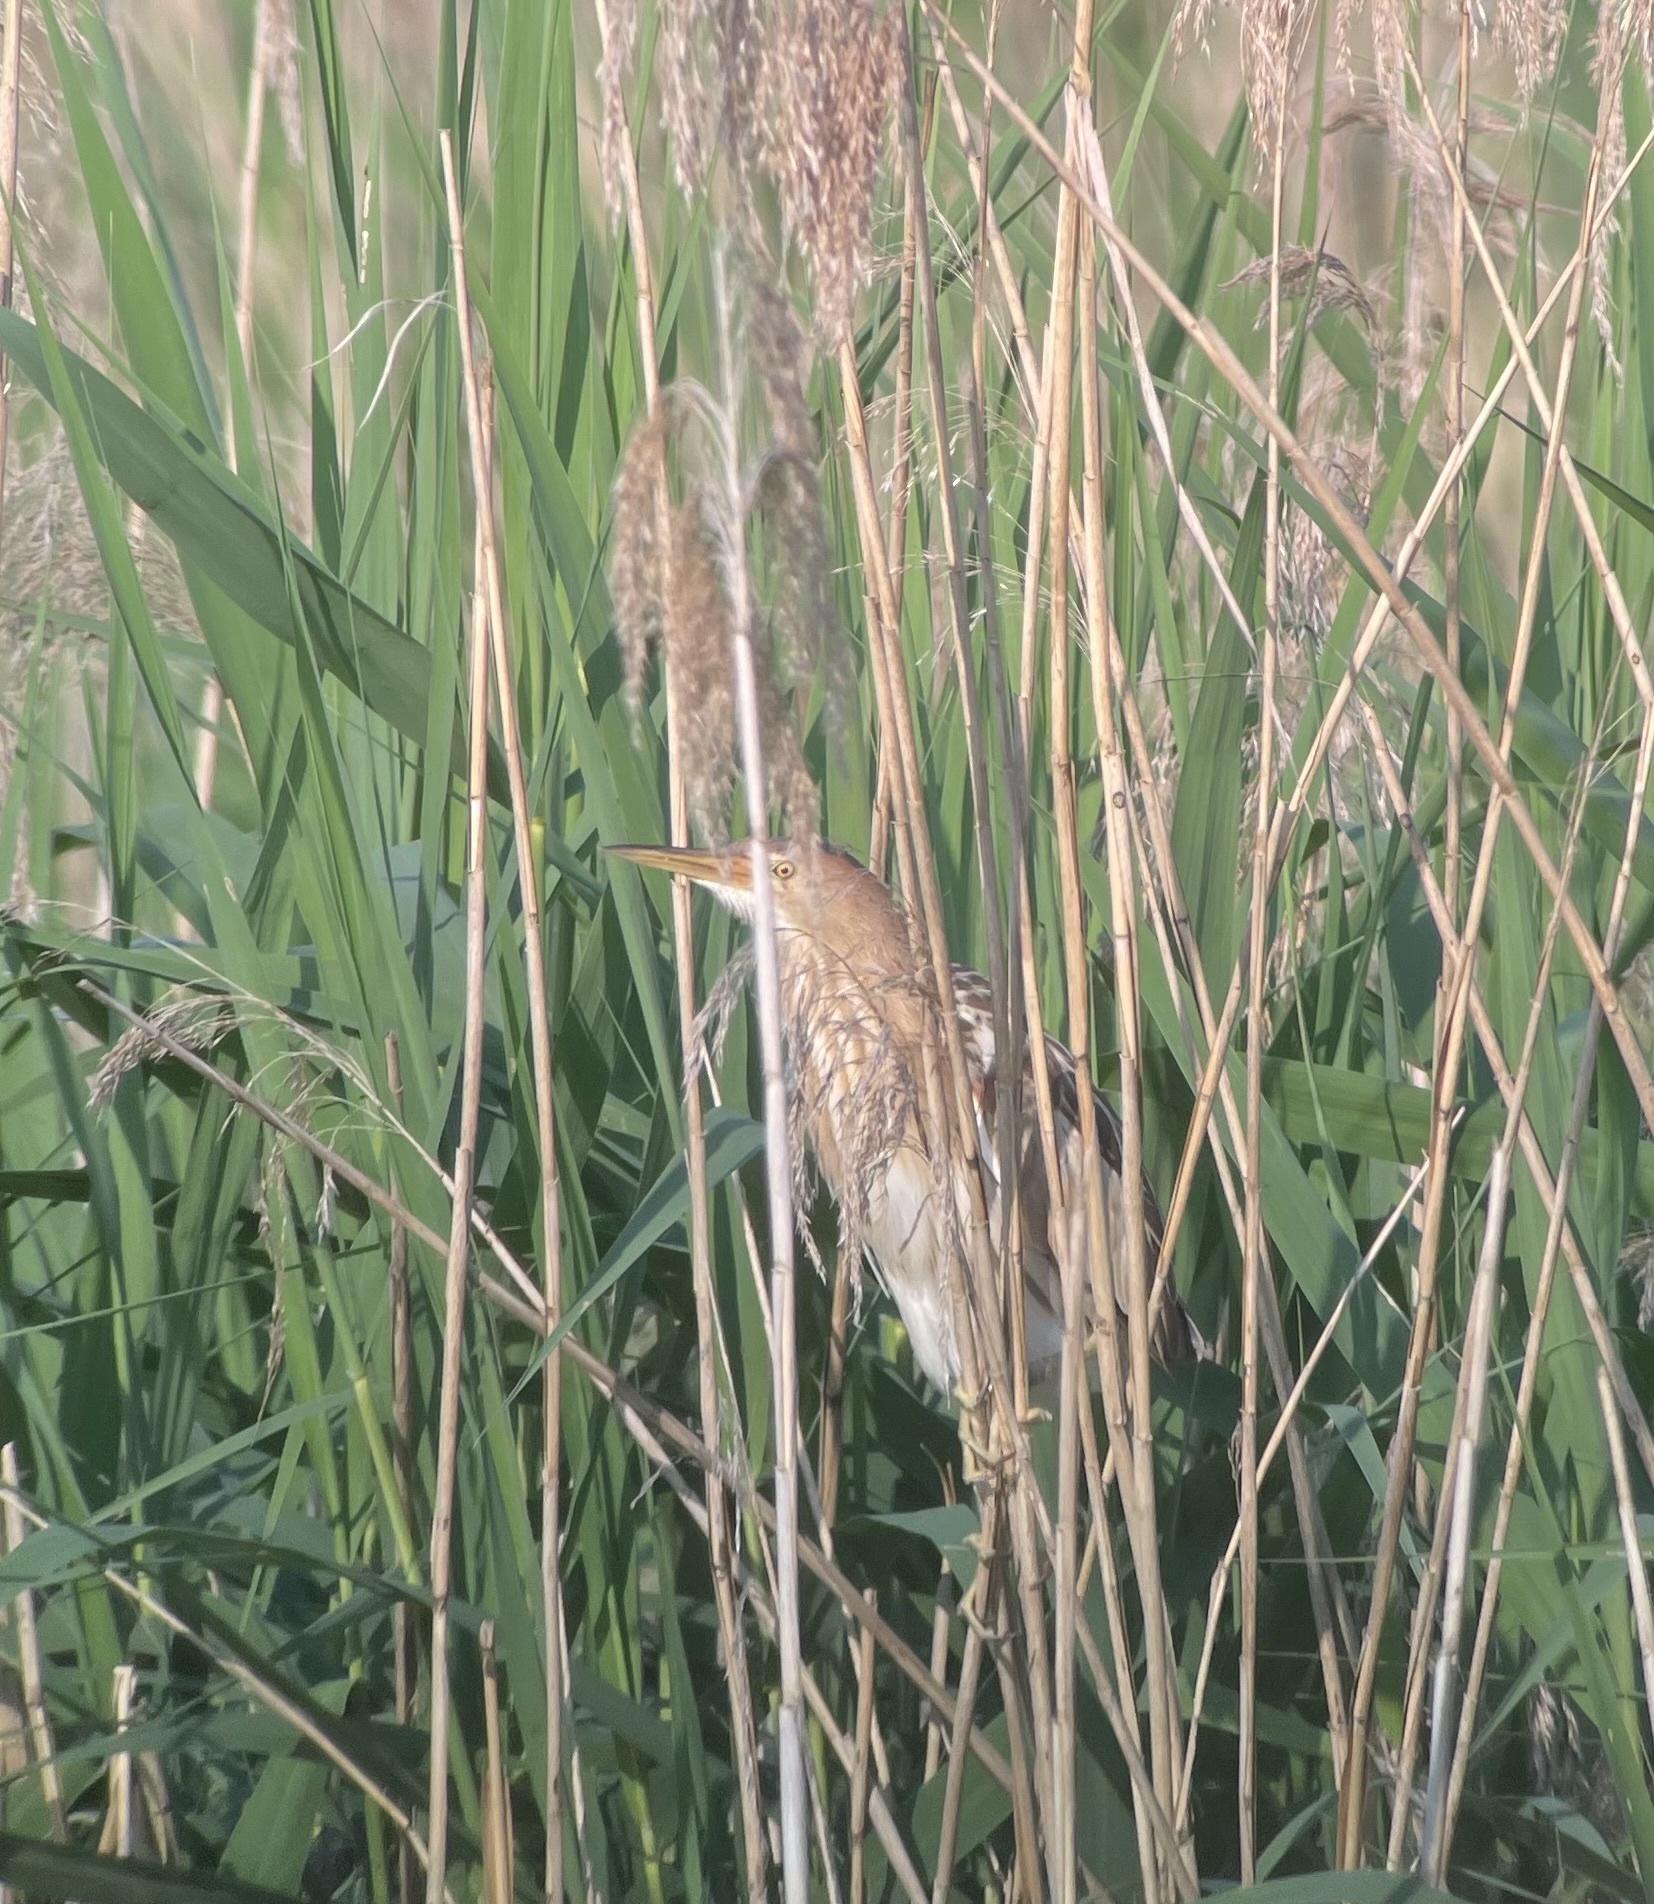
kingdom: Animalia
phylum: Chordata
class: Aves
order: Pelecaniformes
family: Ardeidae
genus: Ixobrychus
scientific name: Ixobrychus minutus
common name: Little bittern
